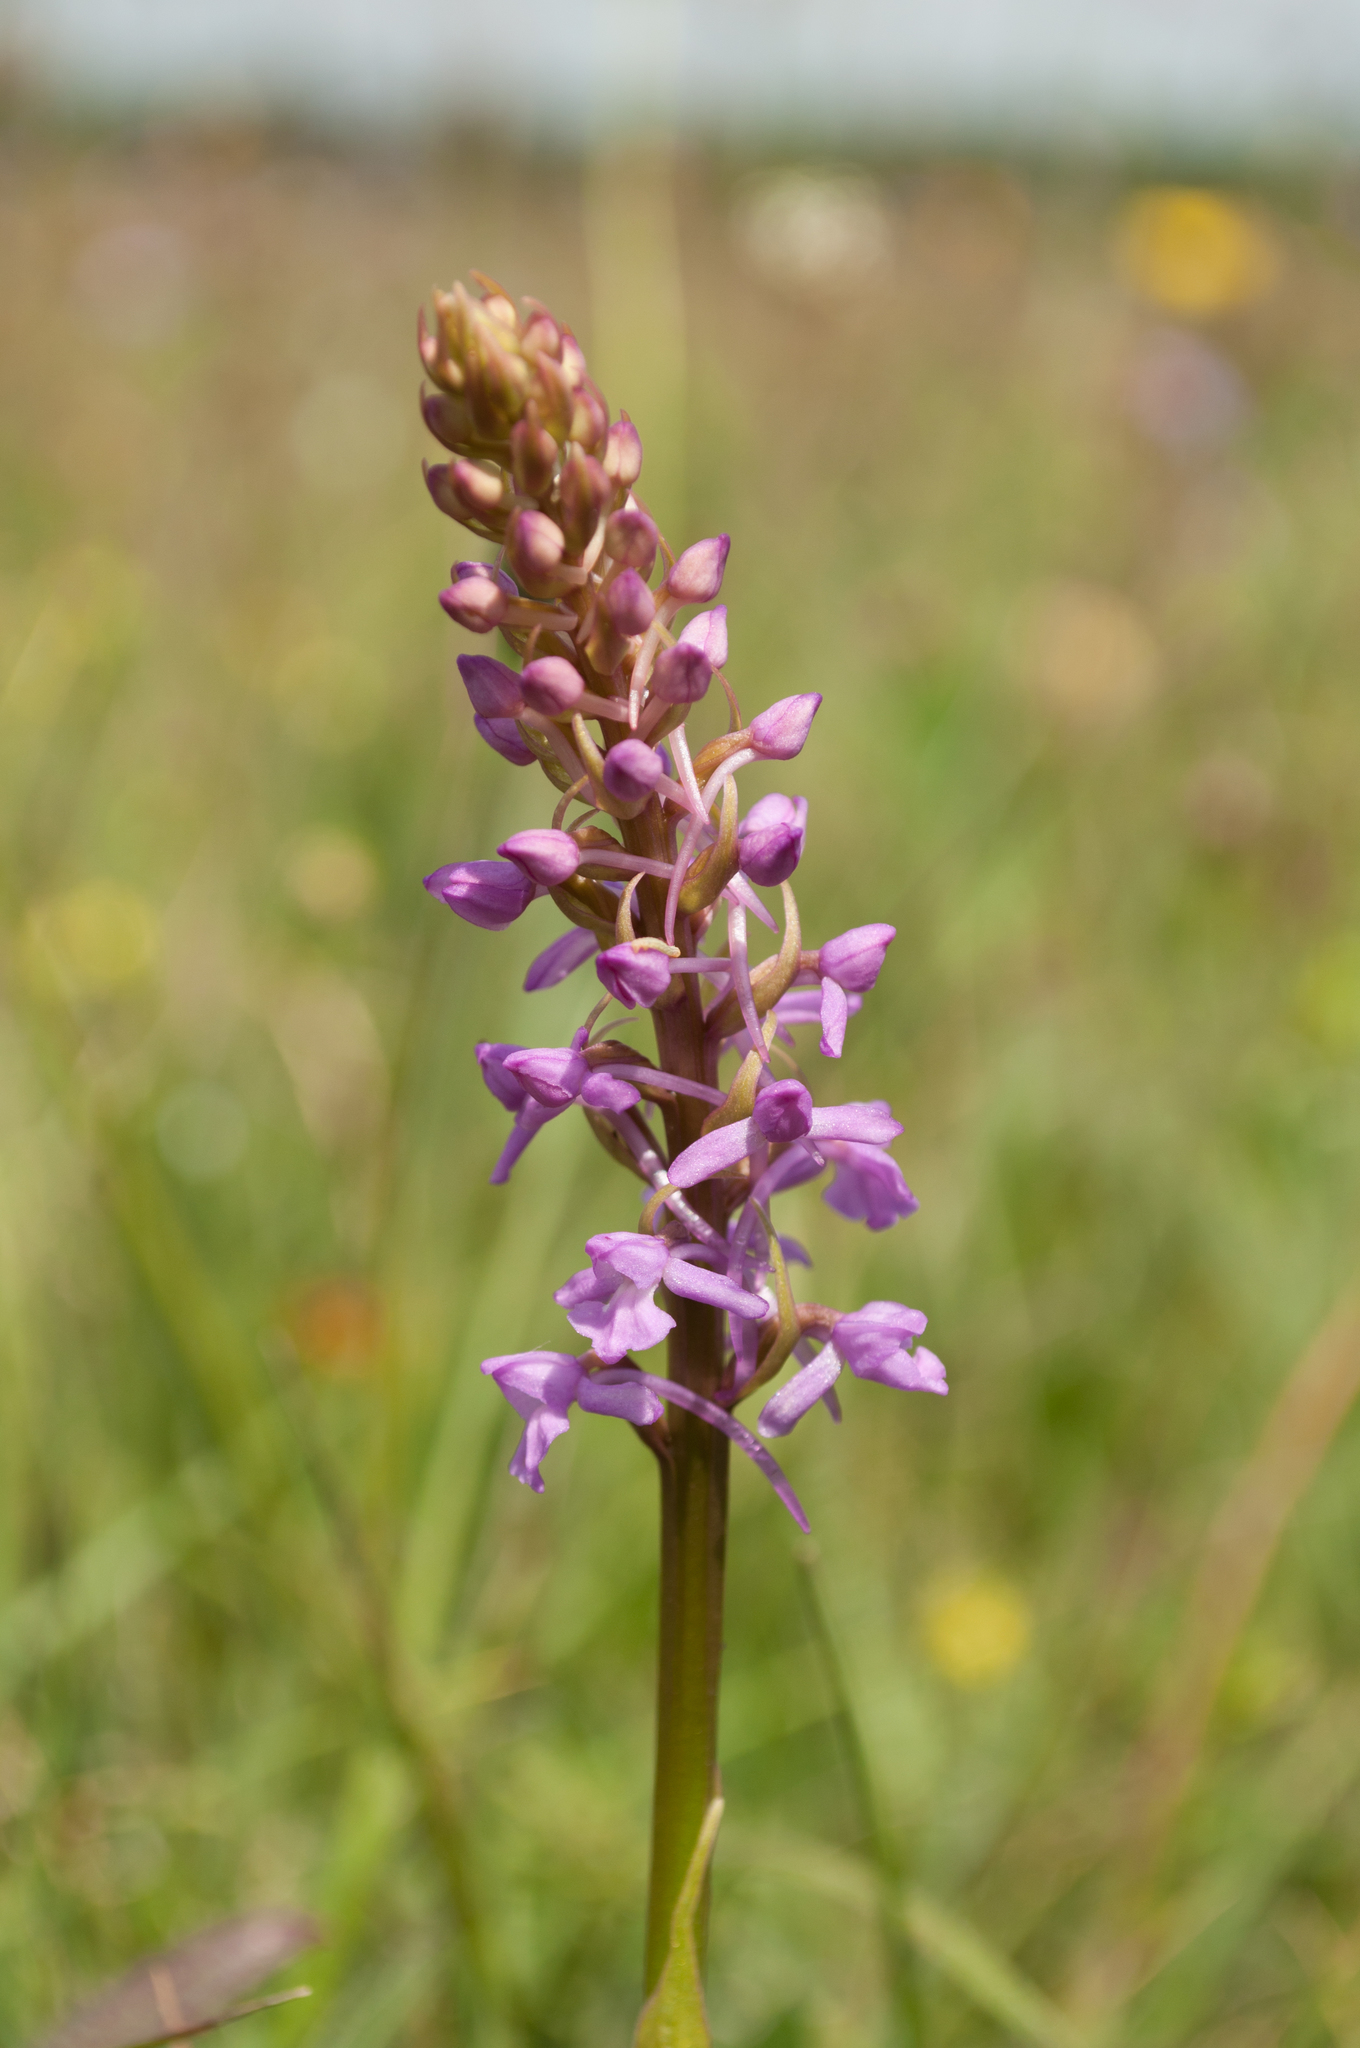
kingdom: Plantae
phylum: Tracheophyta
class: Liliopsida
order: Asparagales
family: Orchidaceae
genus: Gymnadenia
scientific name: Gymnadenia conopsea
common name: Fragrant orchid
